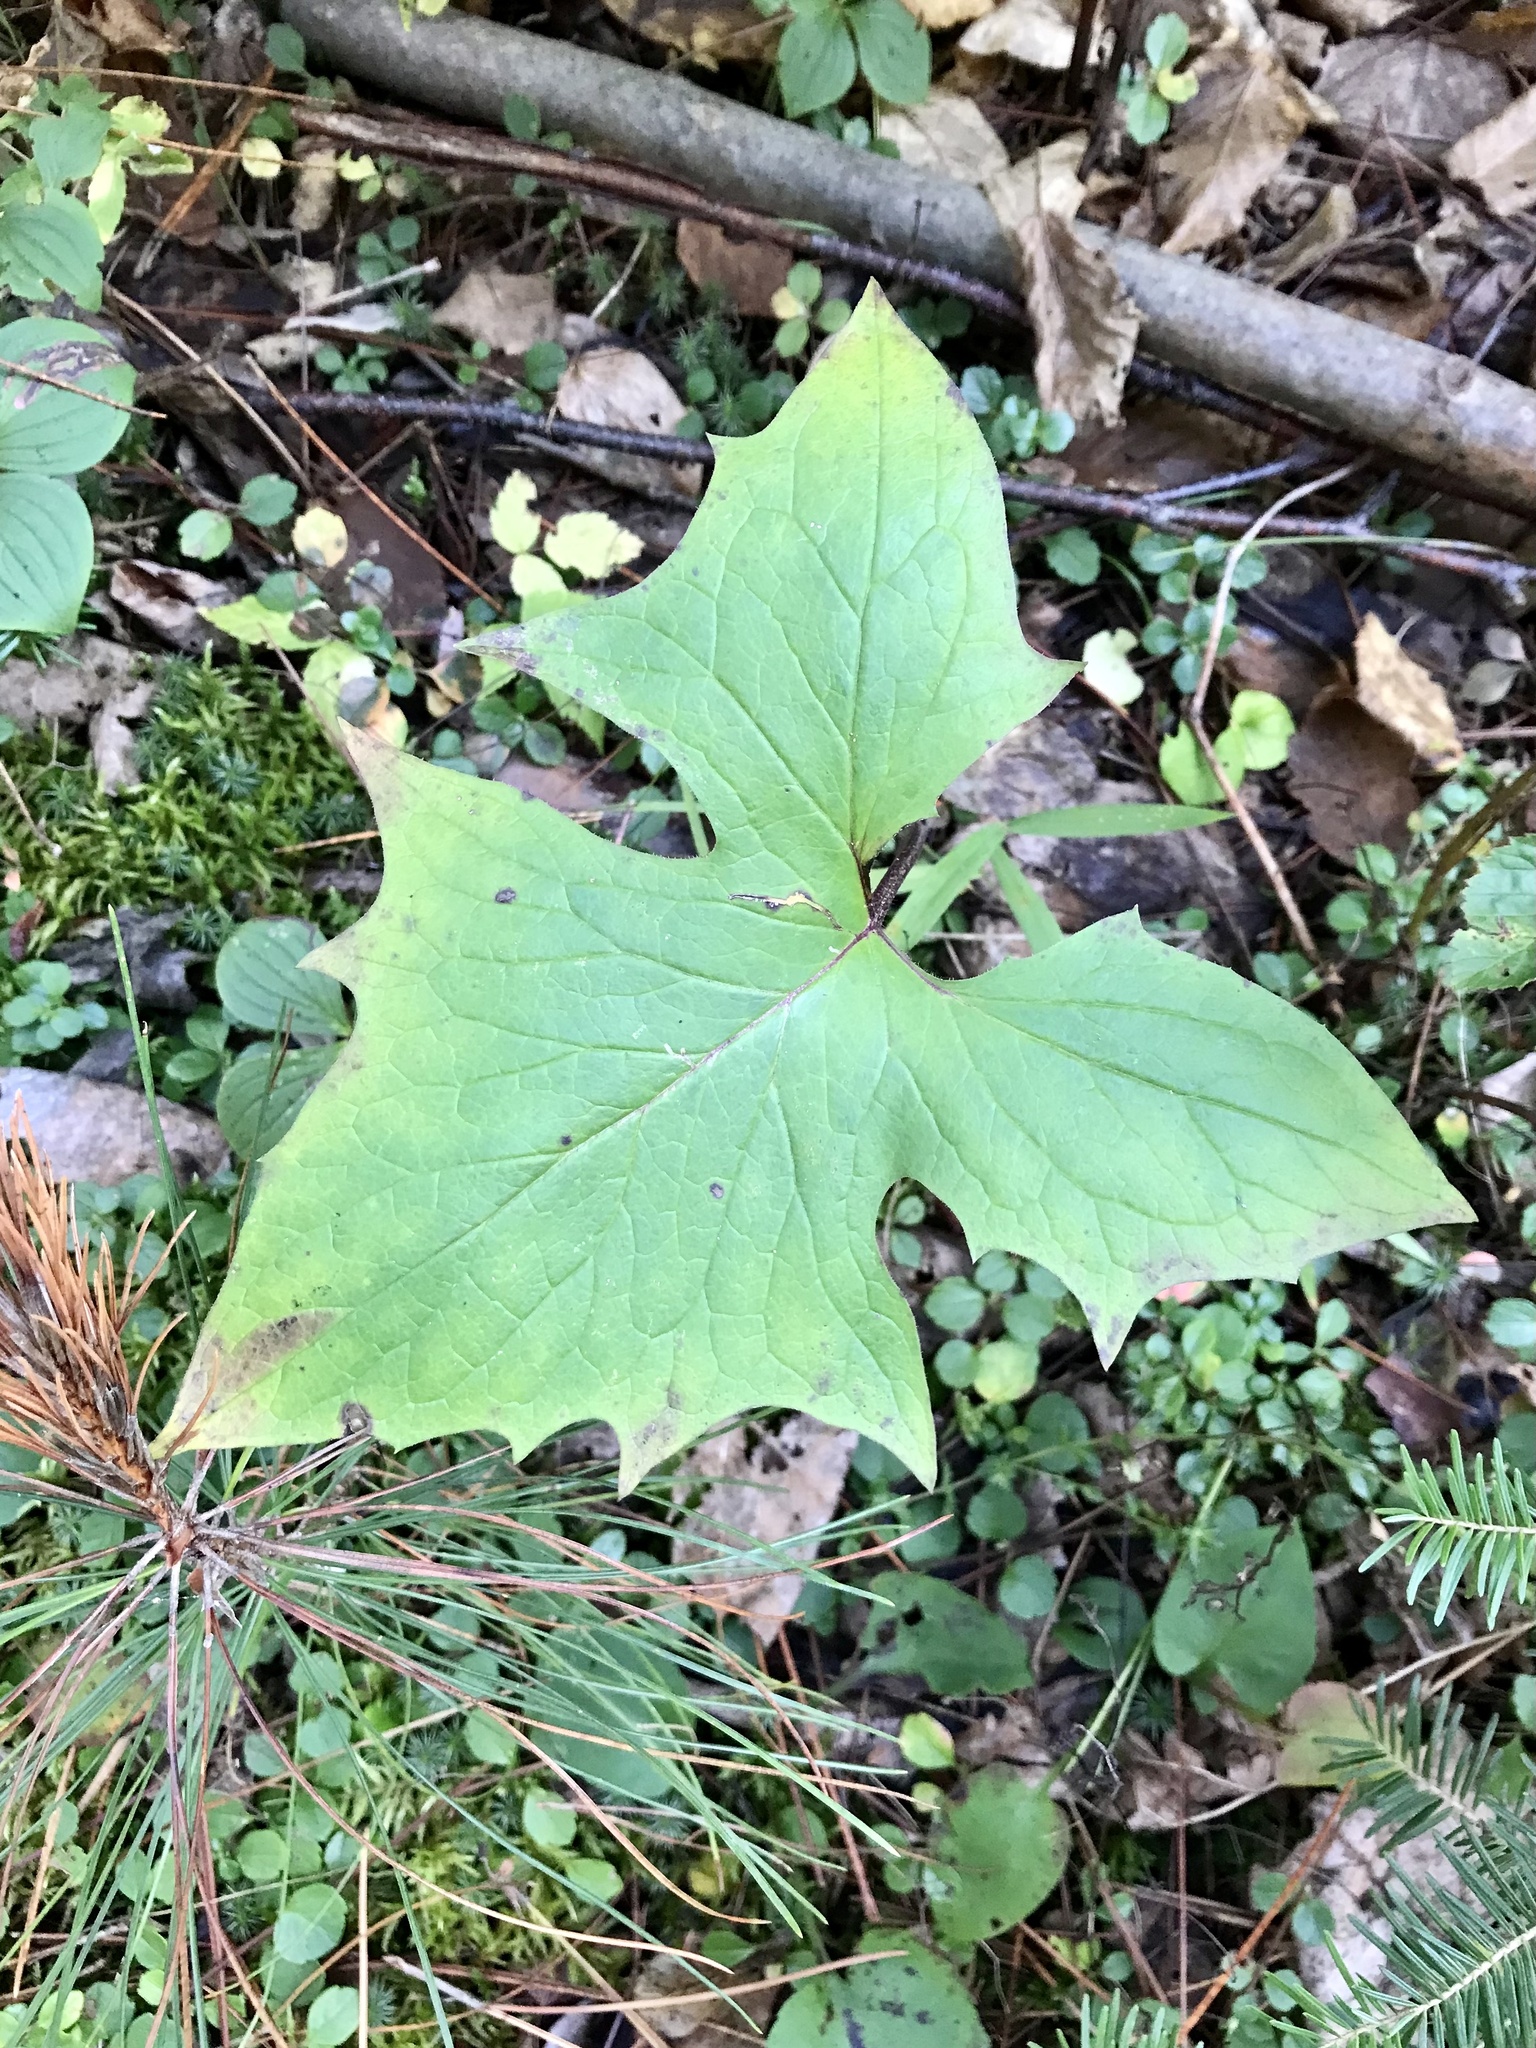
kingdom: Plantae
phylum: Tracheophyta
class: Magnoliopsida
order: Asterales
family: Asteraceae
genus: Nabalus
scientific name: Nabalus albus
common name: White rattlesnakeroot
